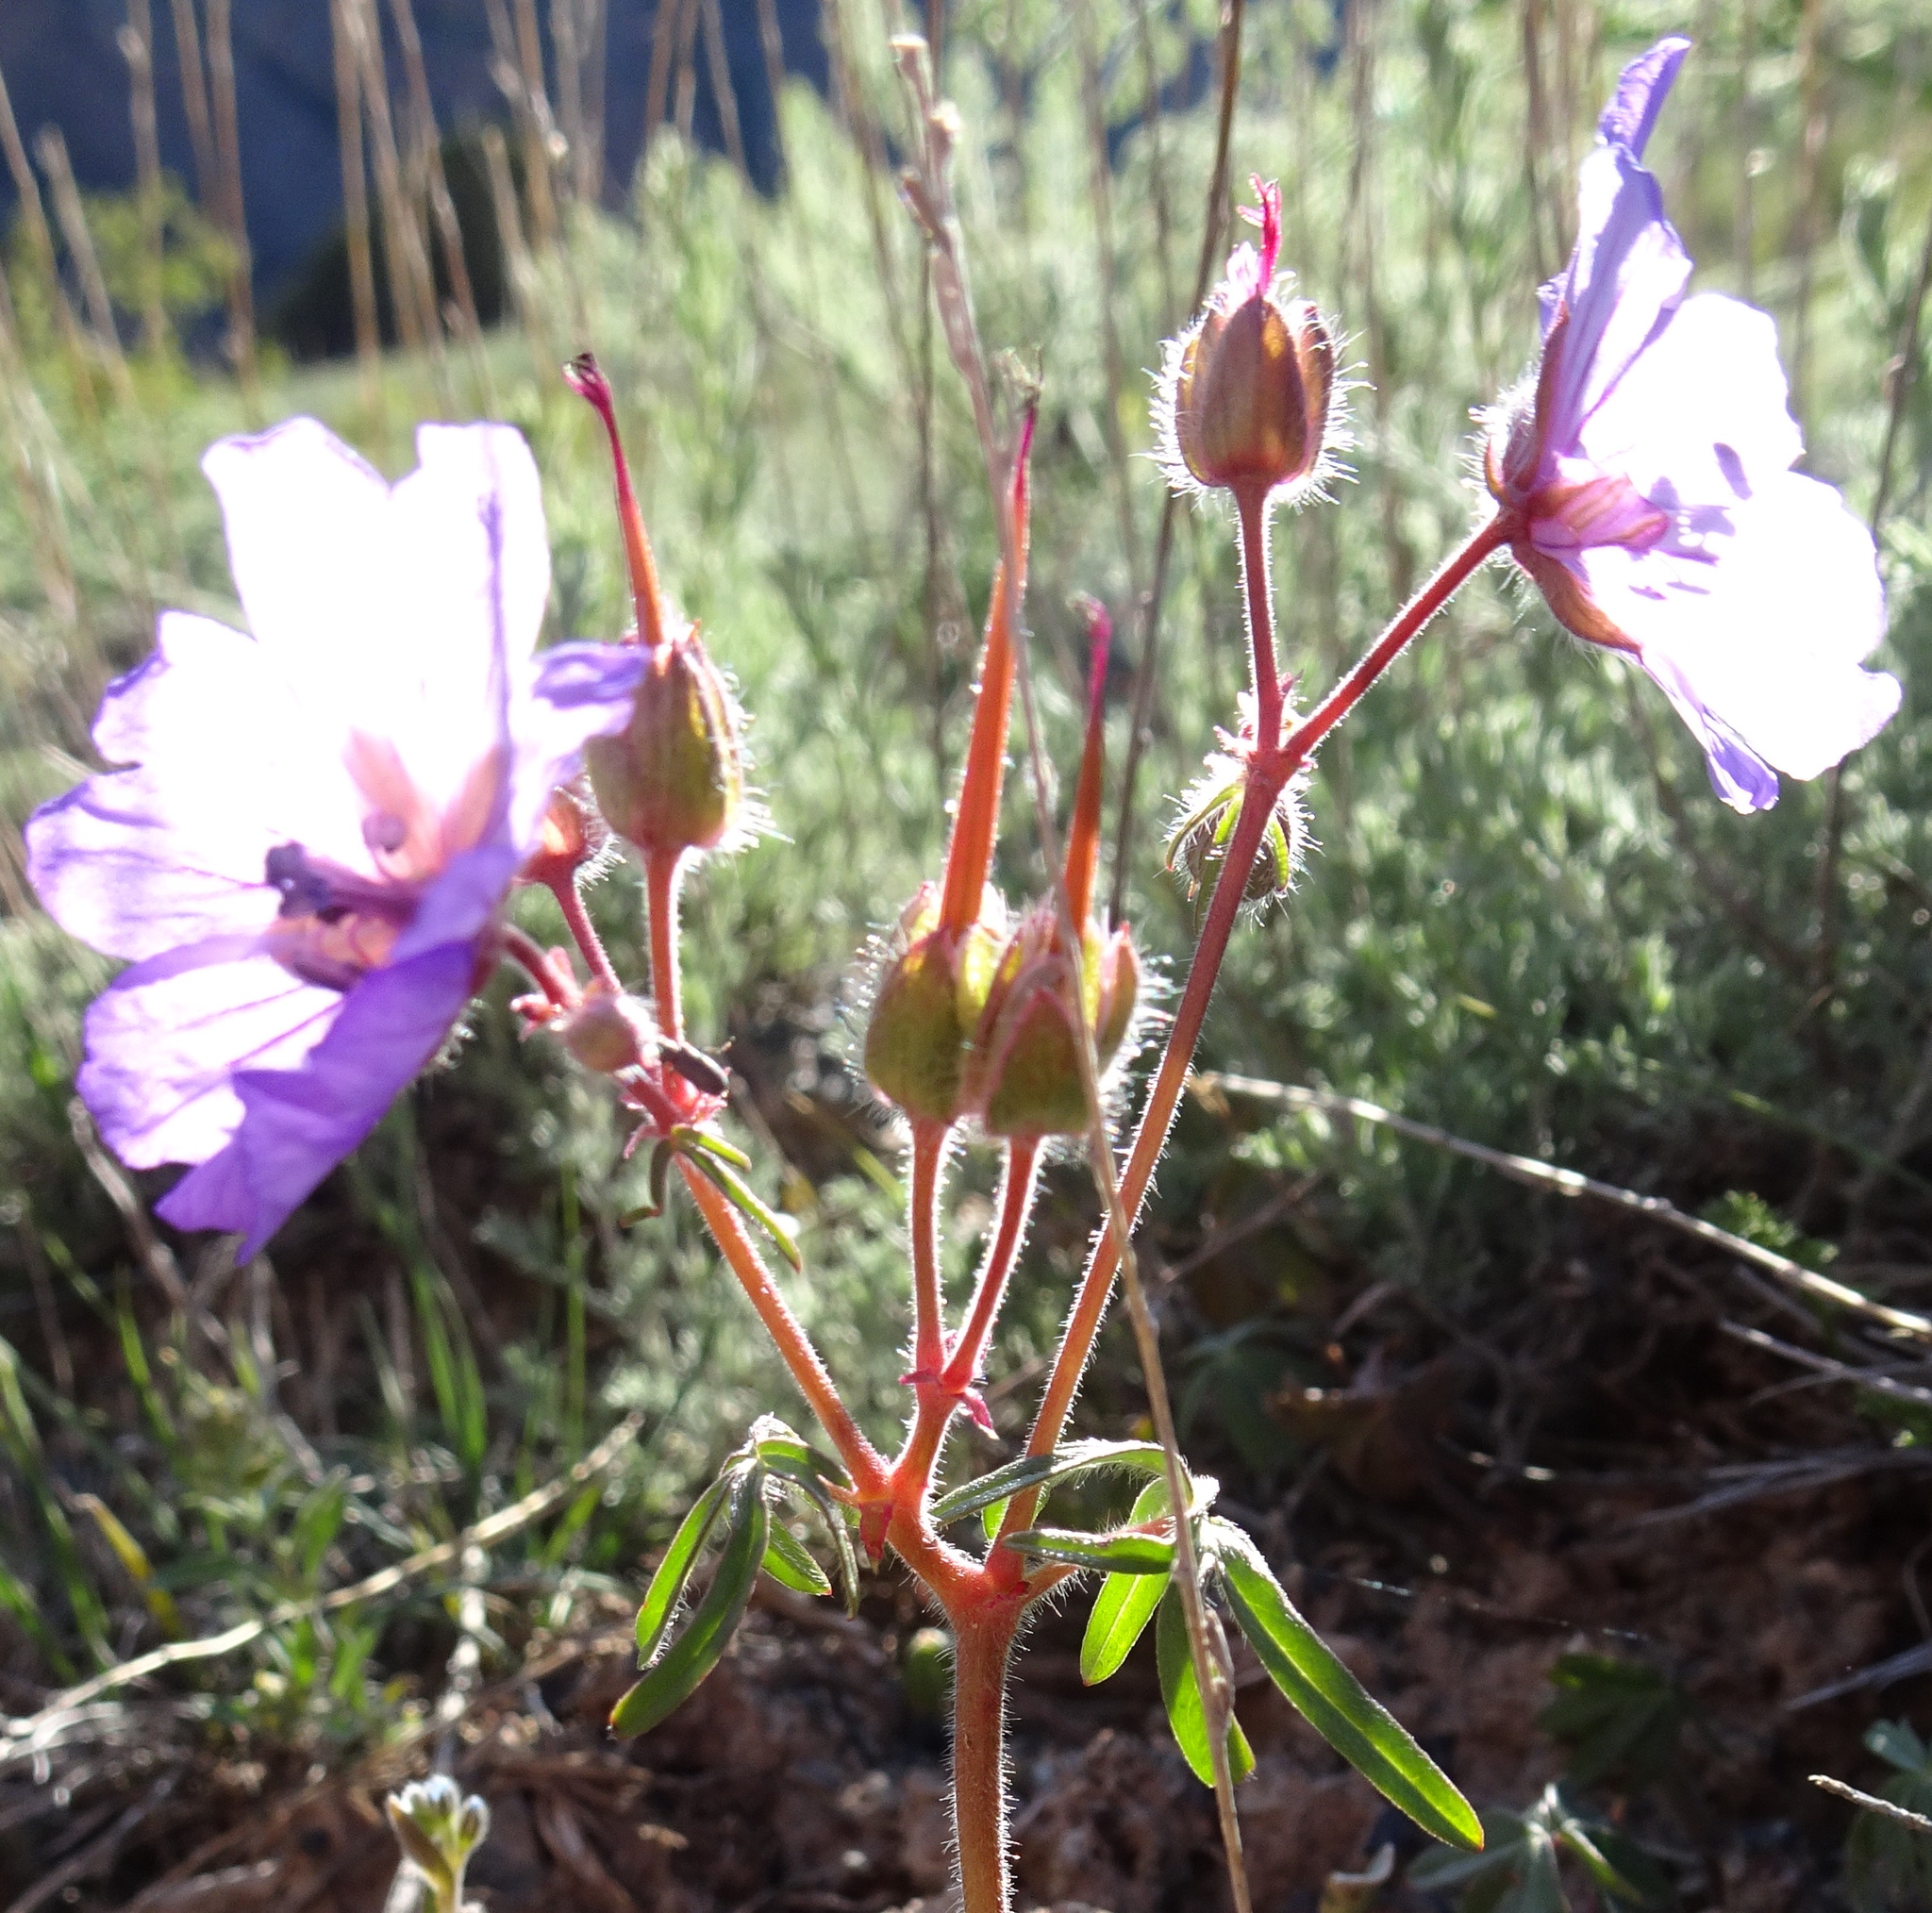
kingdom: Plantae
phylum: Tracheophyta
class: Magnoliopsida
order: Geraniales
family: Geraniaceae
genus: Geranium
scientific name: Geranium linearilobum
